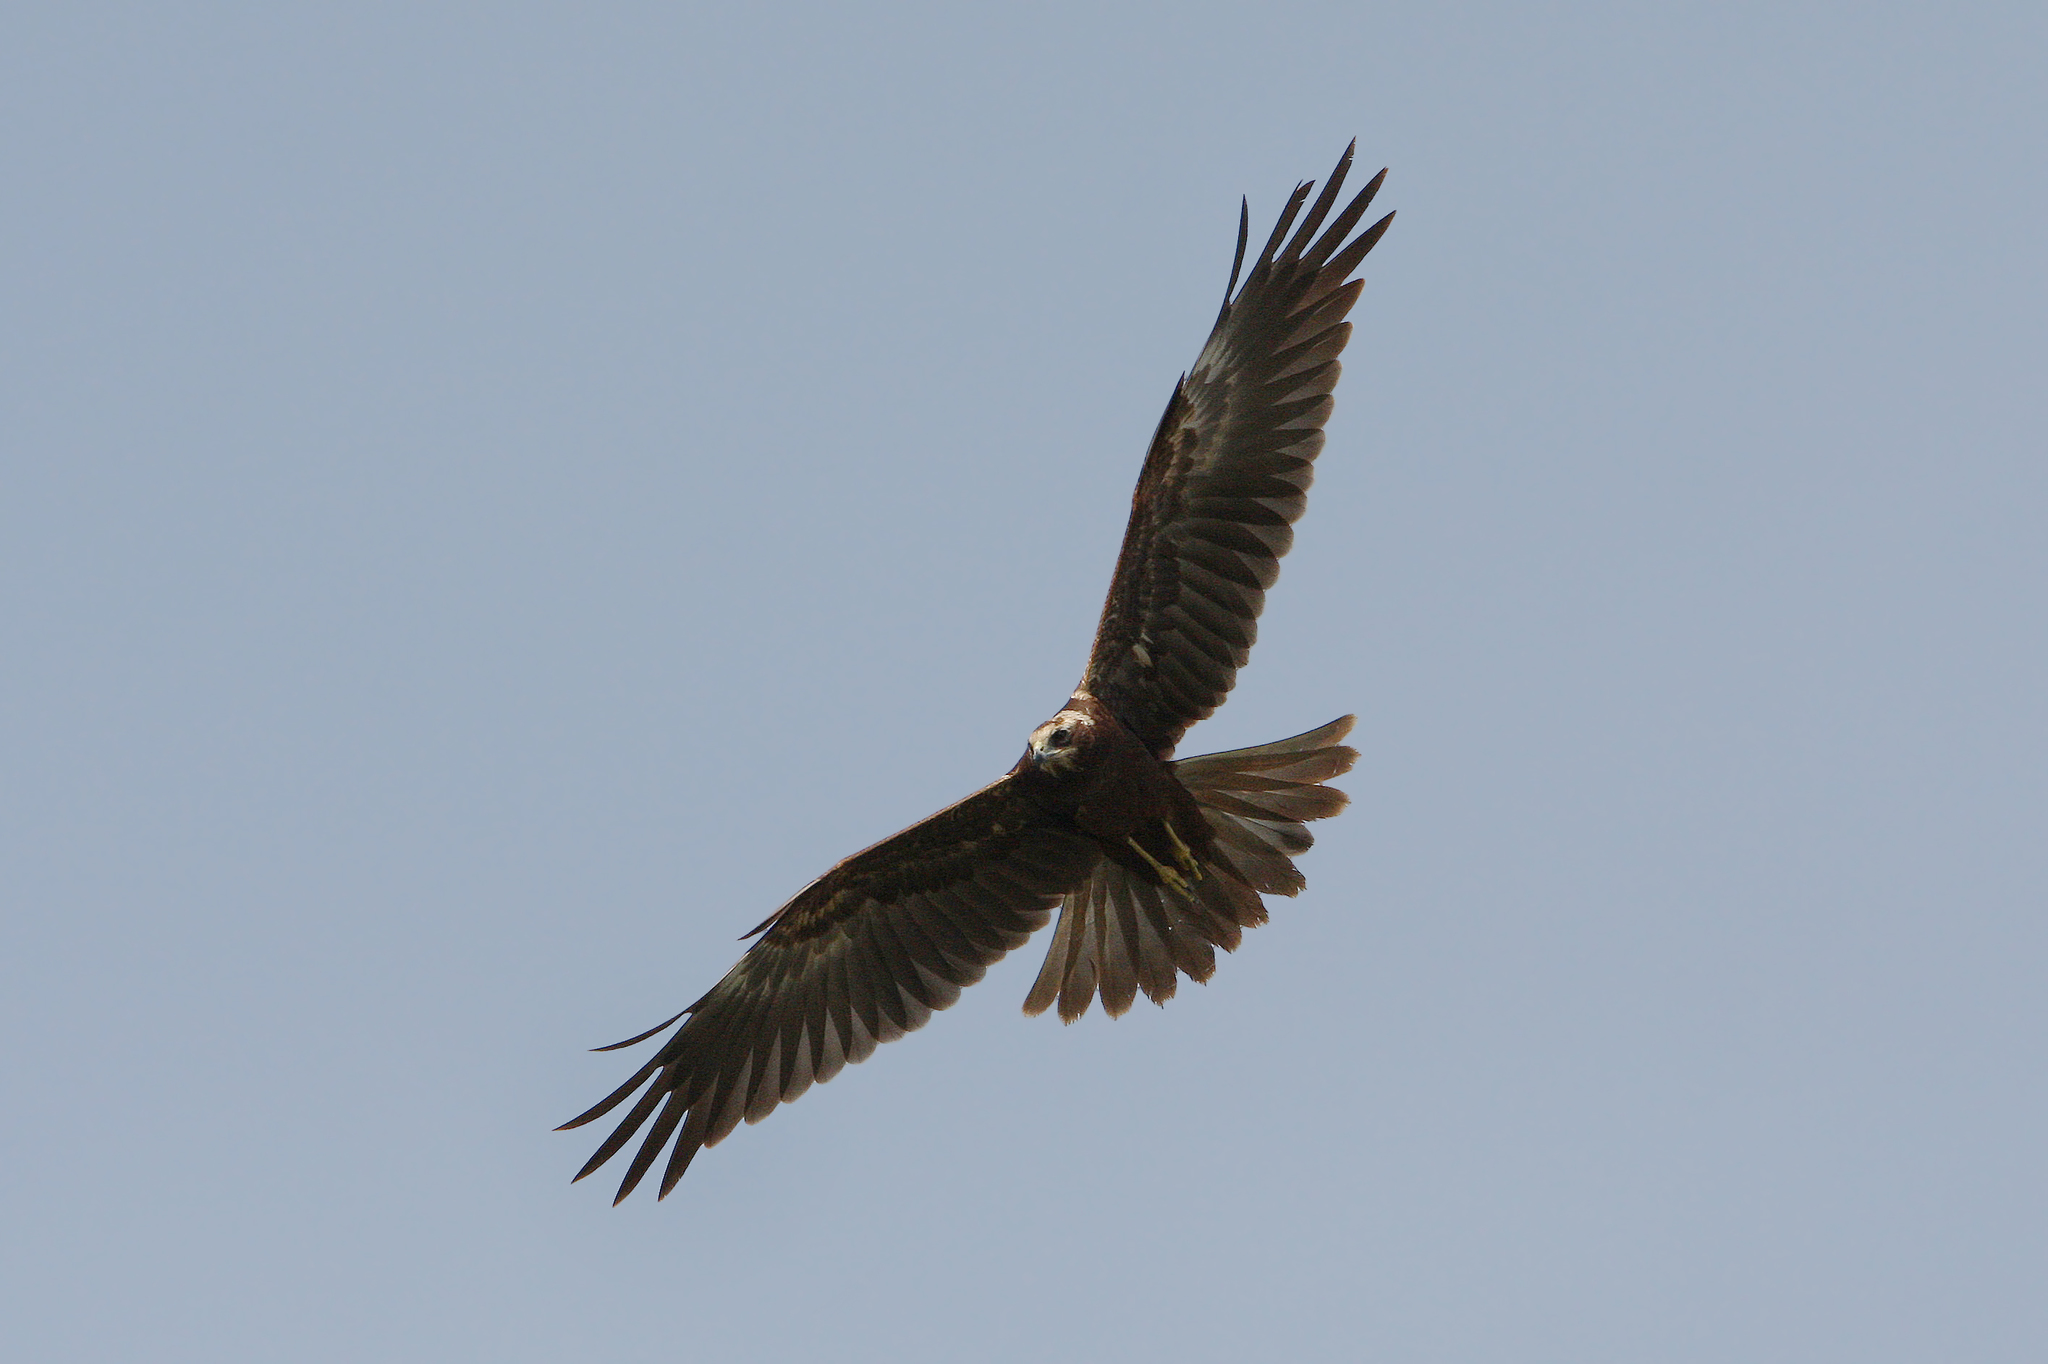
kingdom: Animalia
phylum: Chordata
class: Aves
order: Accipitriformes
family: Accipitridae
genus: Circus
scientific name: Circus aeruginosus
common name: Western marsh harrier
